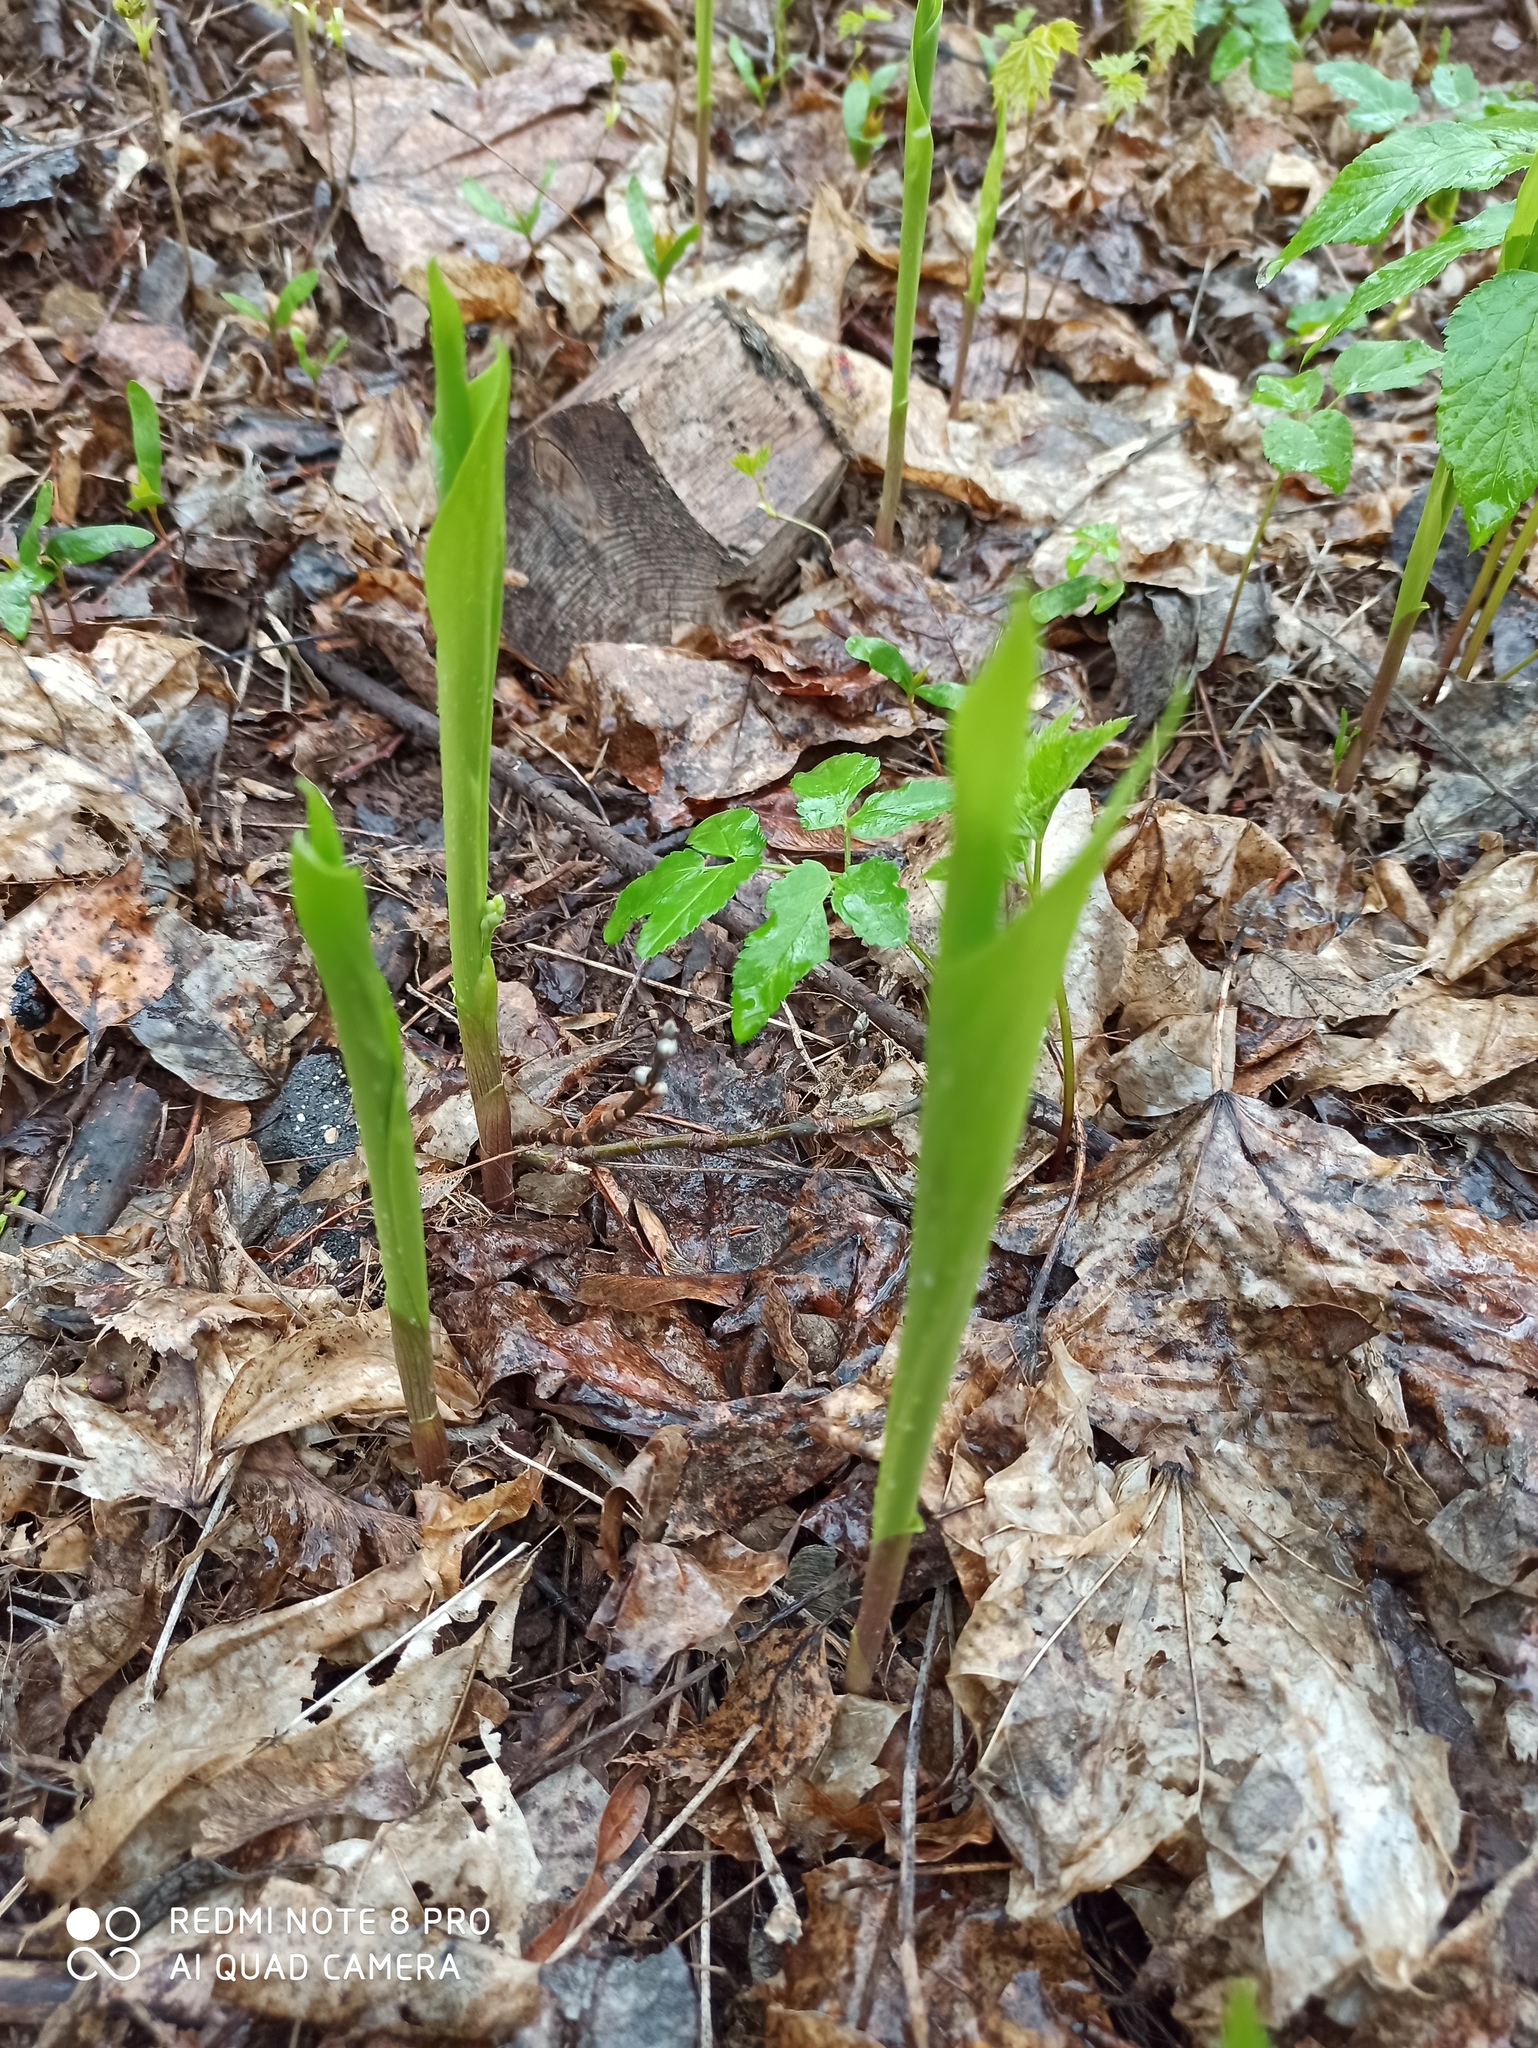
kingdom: Plantae
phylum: Tracheophyta
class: Liliopsida
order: Asparagales
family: Asparagaceae
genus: Convallaria
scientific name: Convallaria majalis
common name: Lily-of-the-valley
